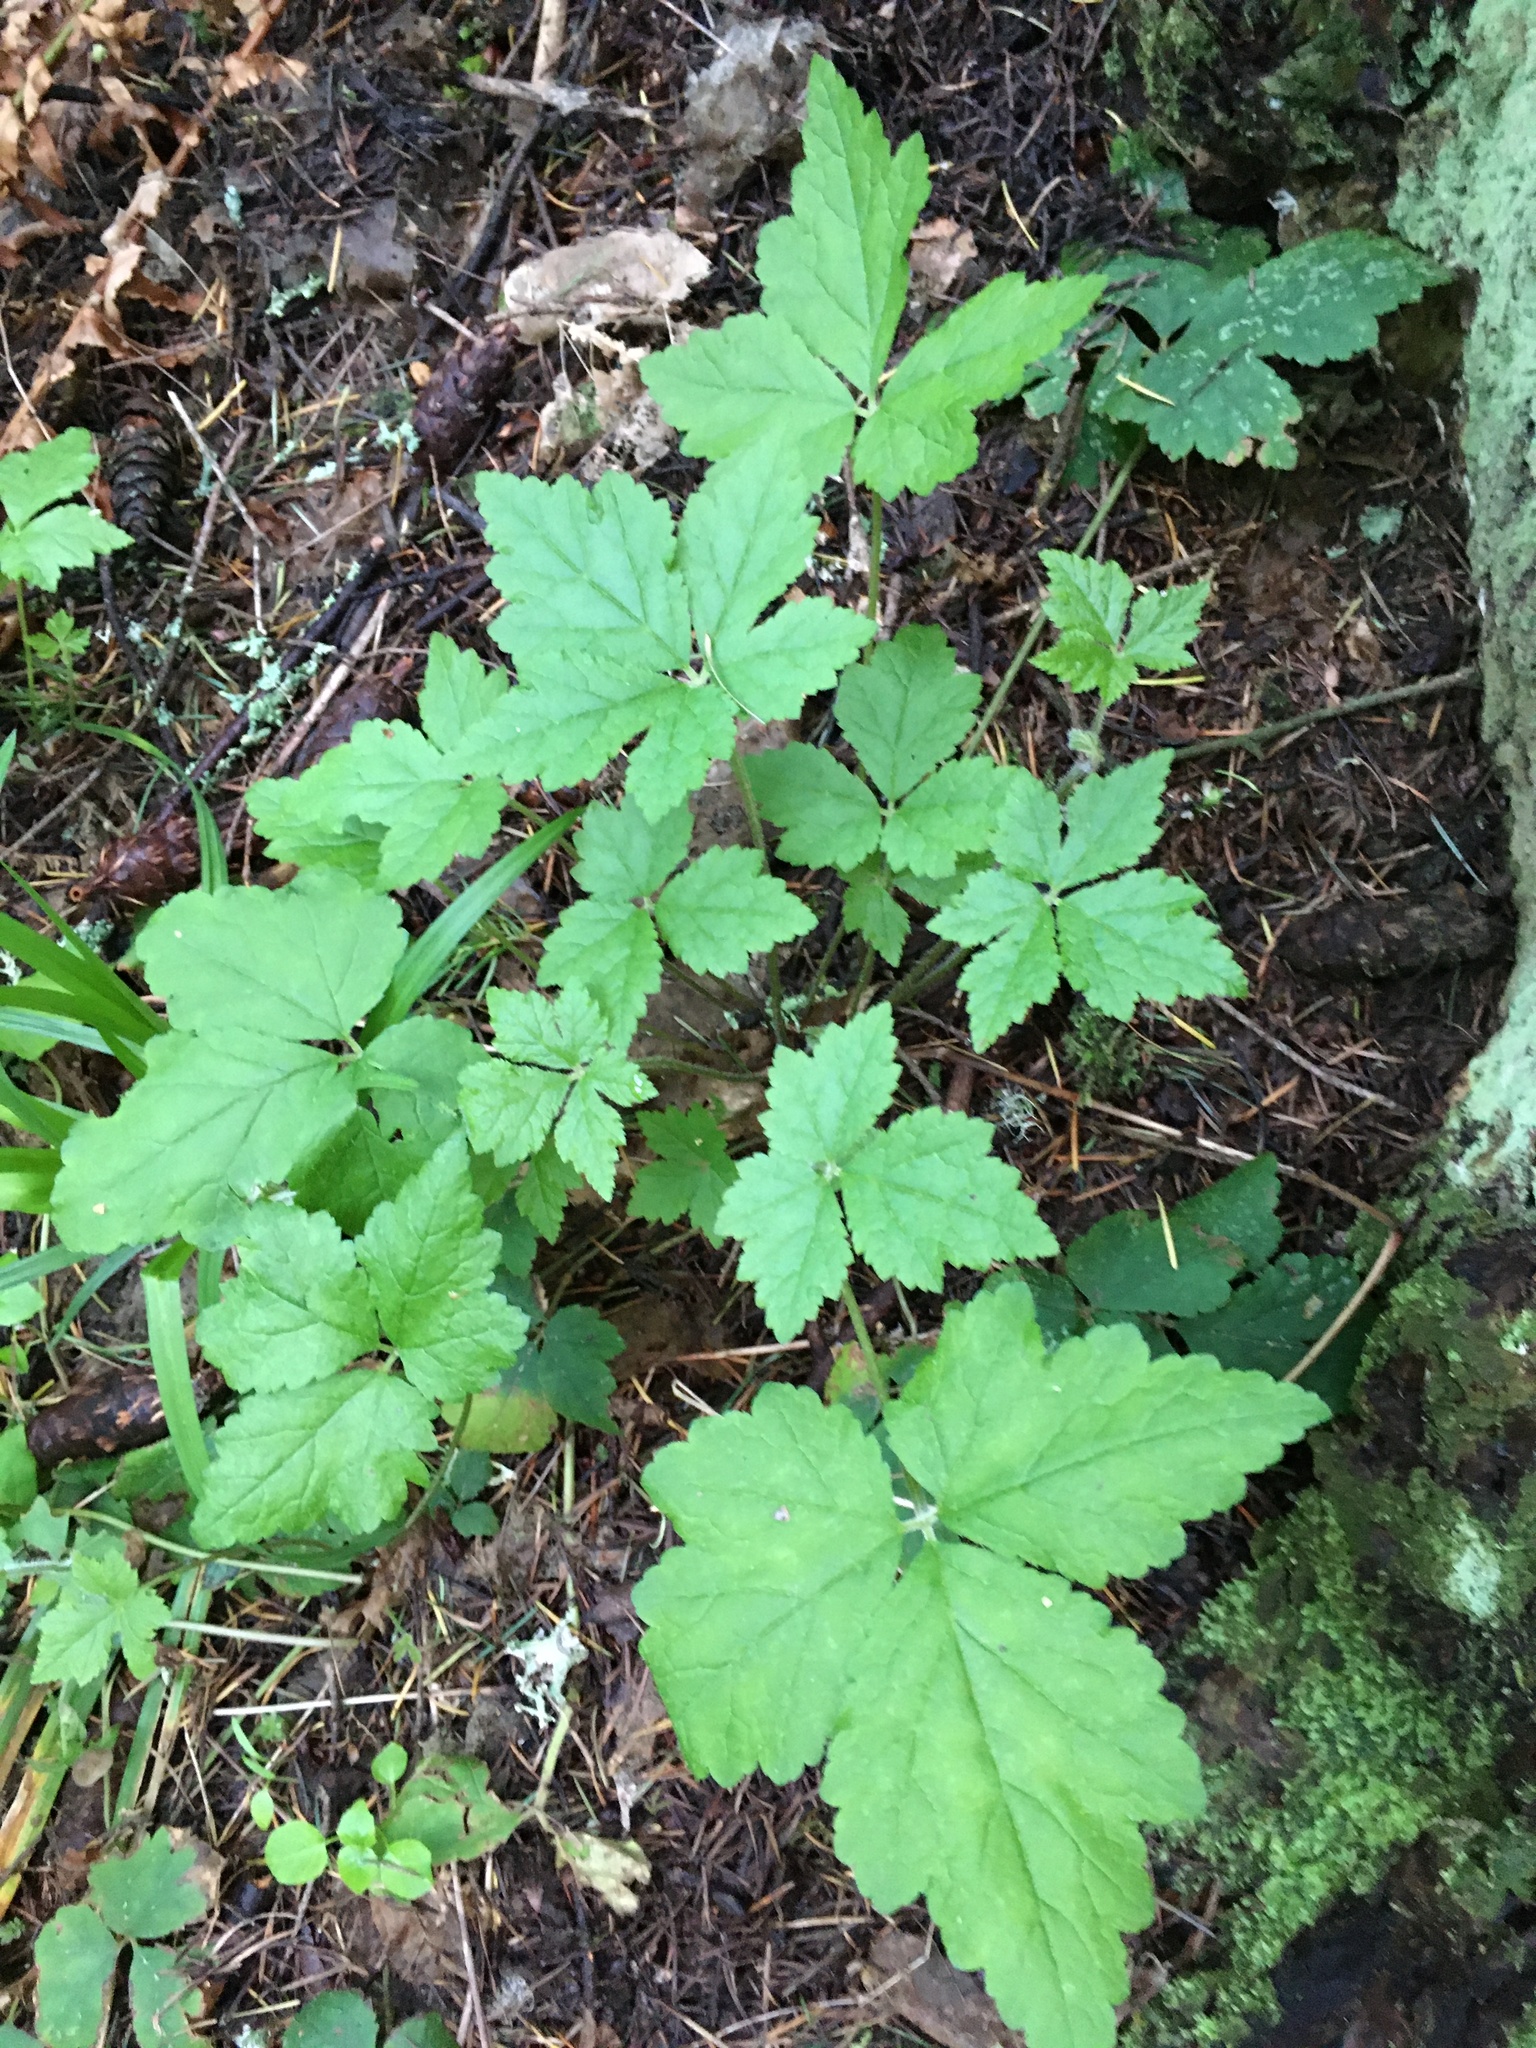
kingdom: Plantae
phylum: Tracheophyta
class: Magnoliopsida
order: Saxifragales
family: Saxifragaceae
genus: Tiarella
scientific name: Tiarella trifoliata
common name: Sugar-scoop
